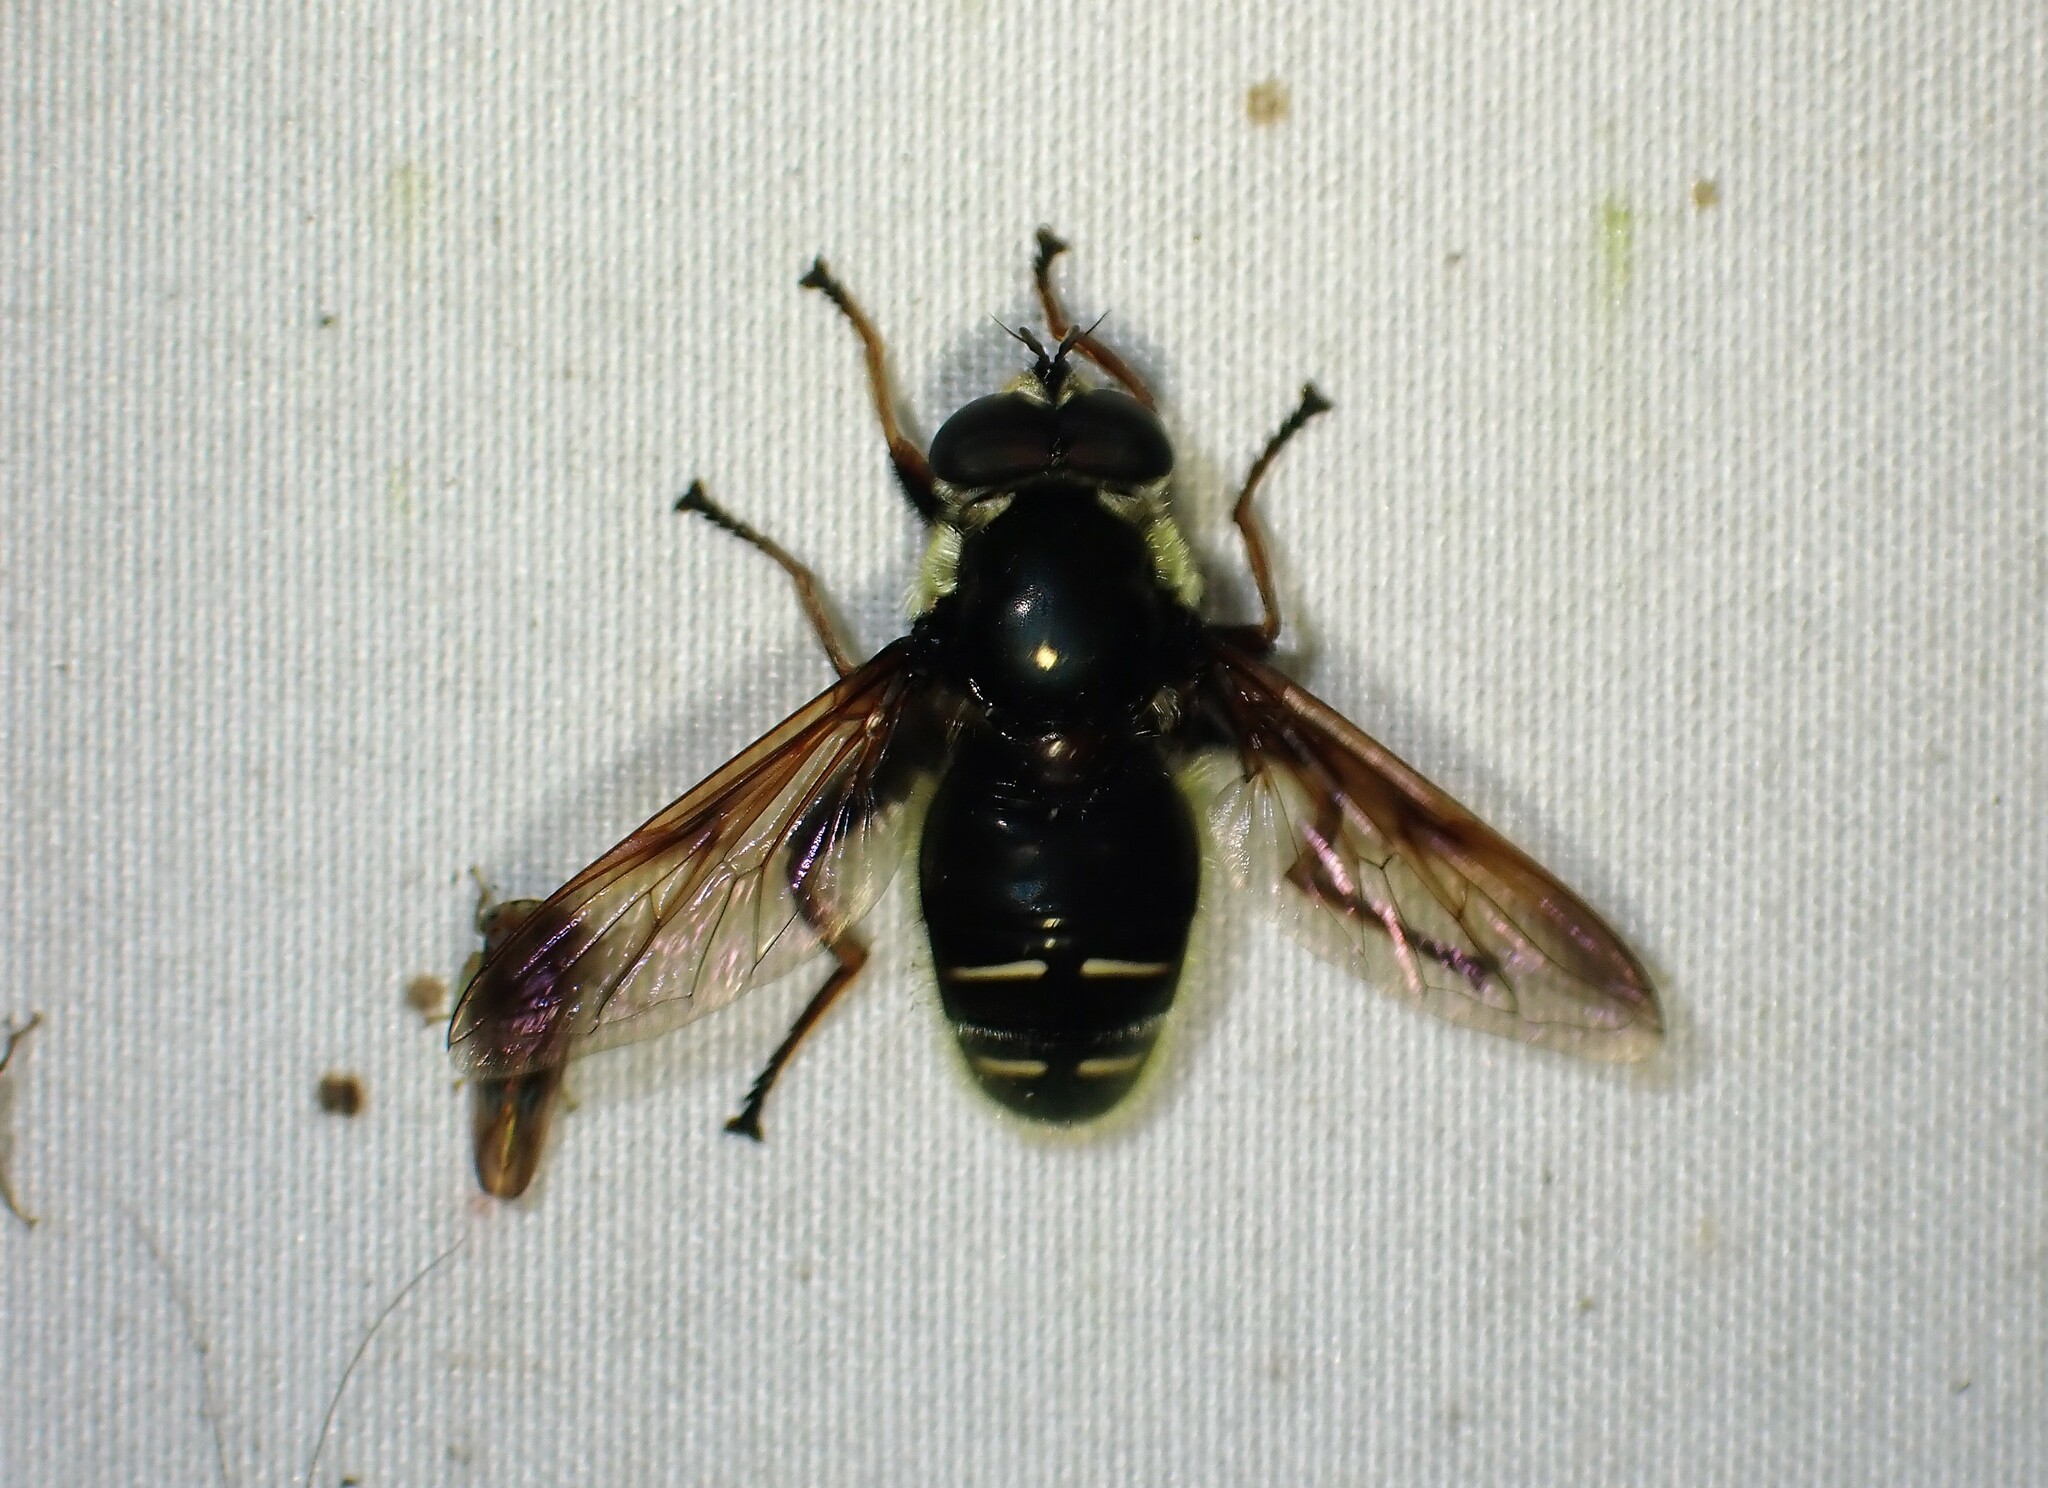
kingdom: Animalia
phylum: Arthropoda
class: Insecta
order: Diptera
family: Syrphidae
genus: Sericomyia
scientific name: Sericomyia militaris
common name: Narrow-banded pond fly
